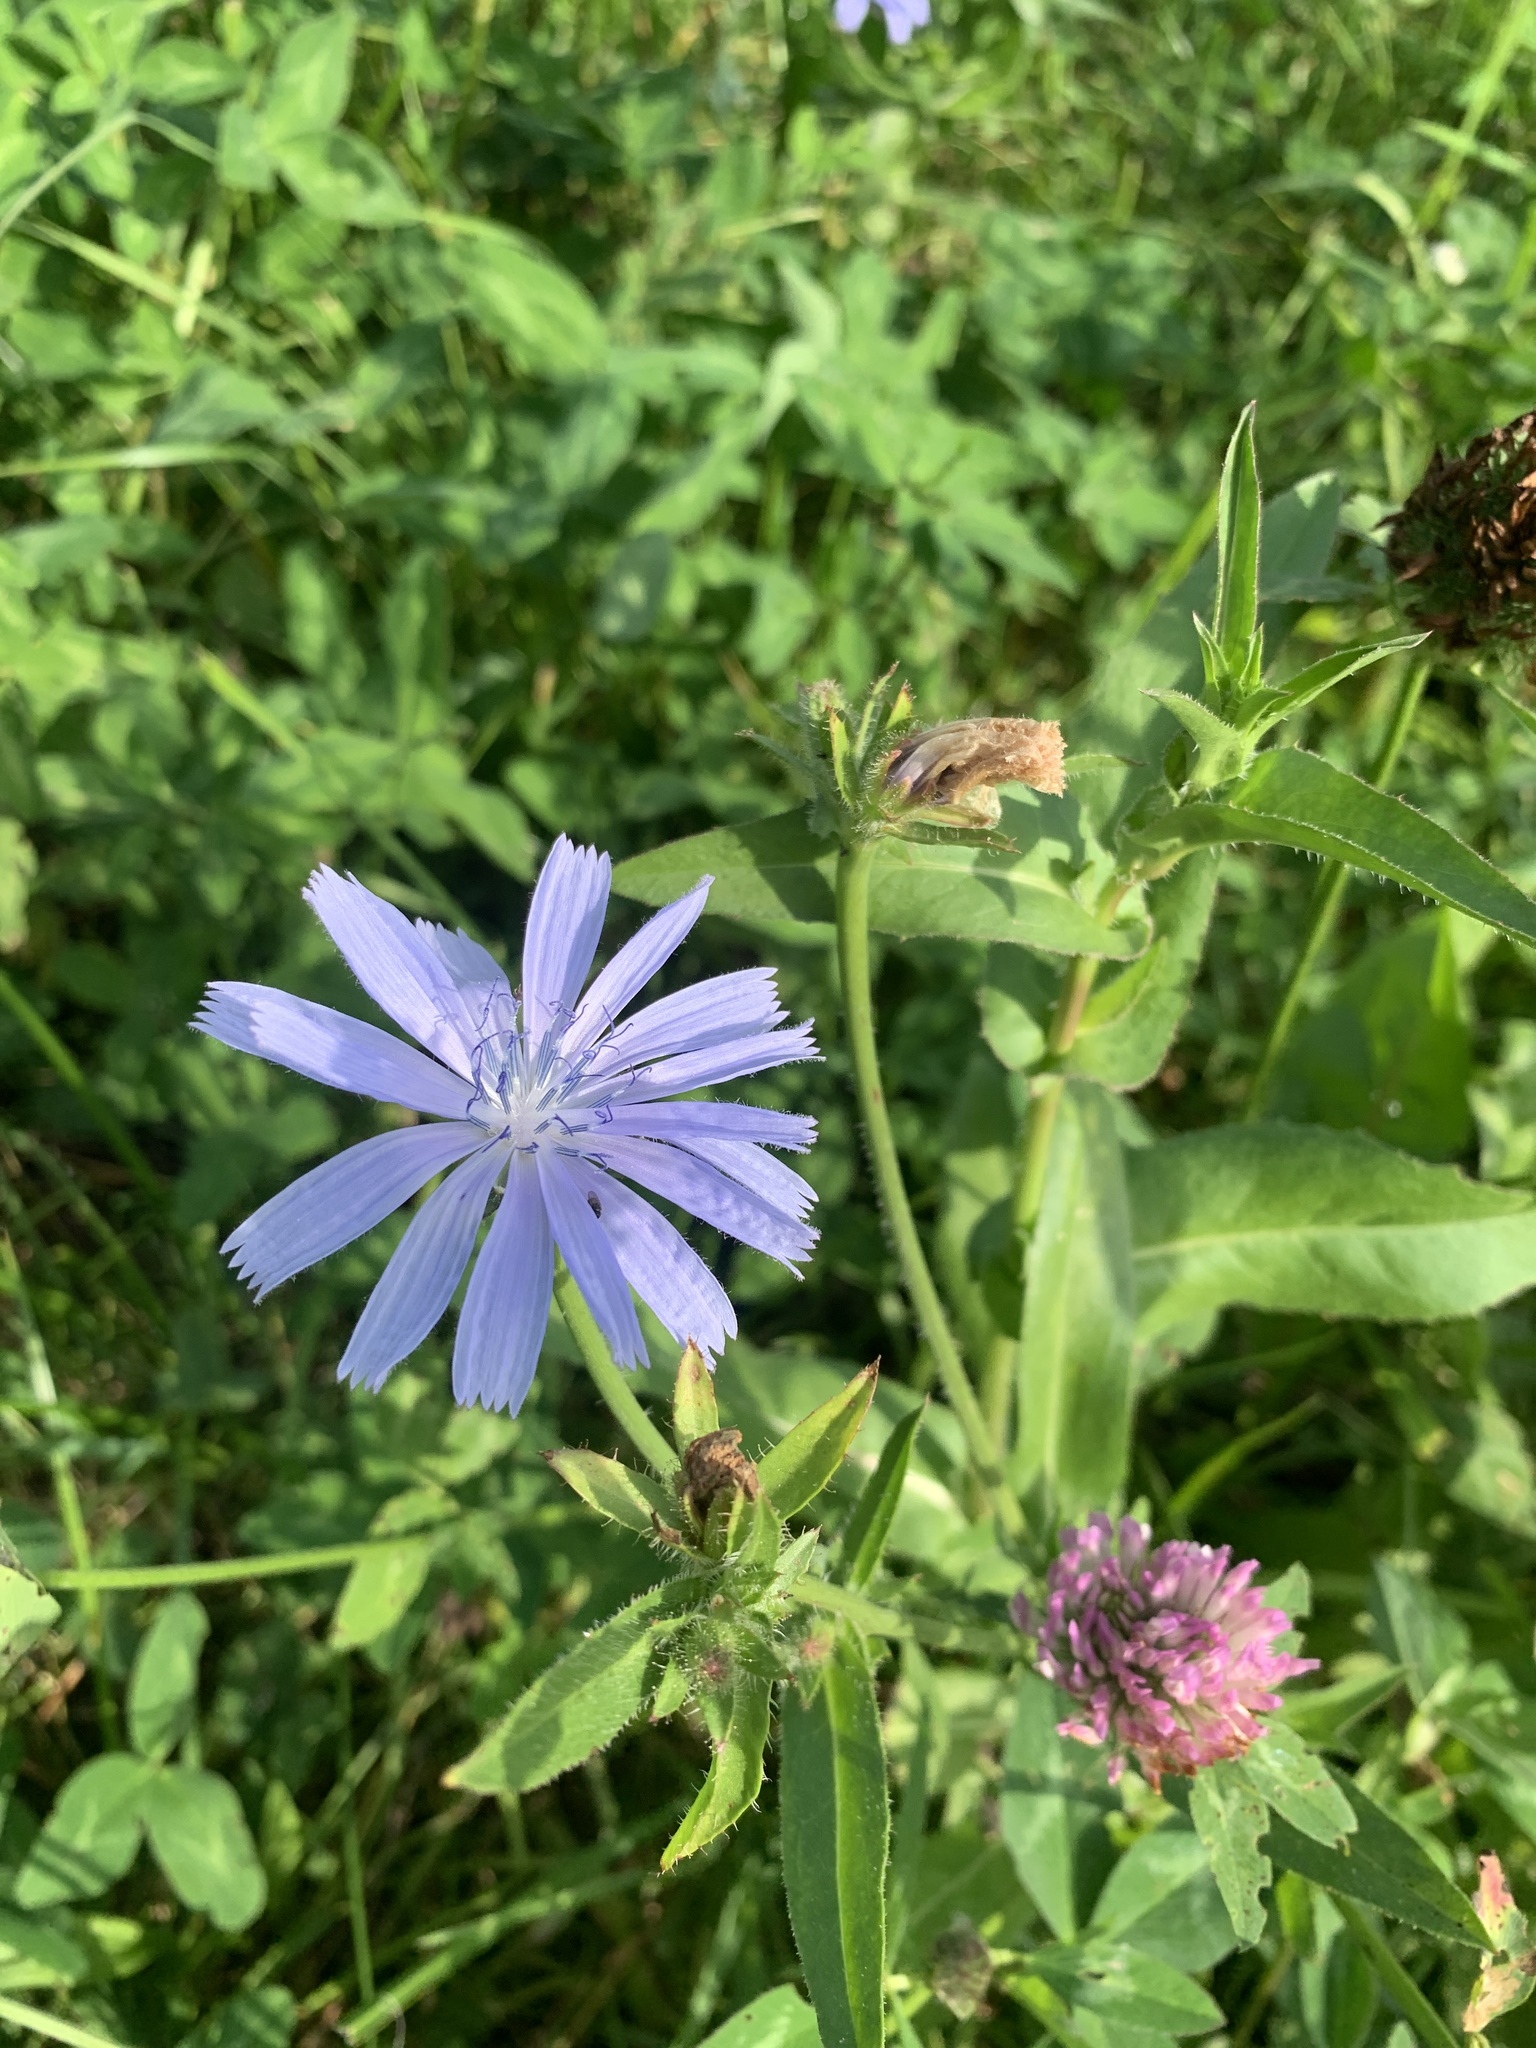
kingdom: Plantae
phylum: Tracheophyta
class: Magnoliopsida
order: Asterales
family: Asteraceae
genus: Cichorium
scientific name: Cichorium intybus
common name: Chicory
